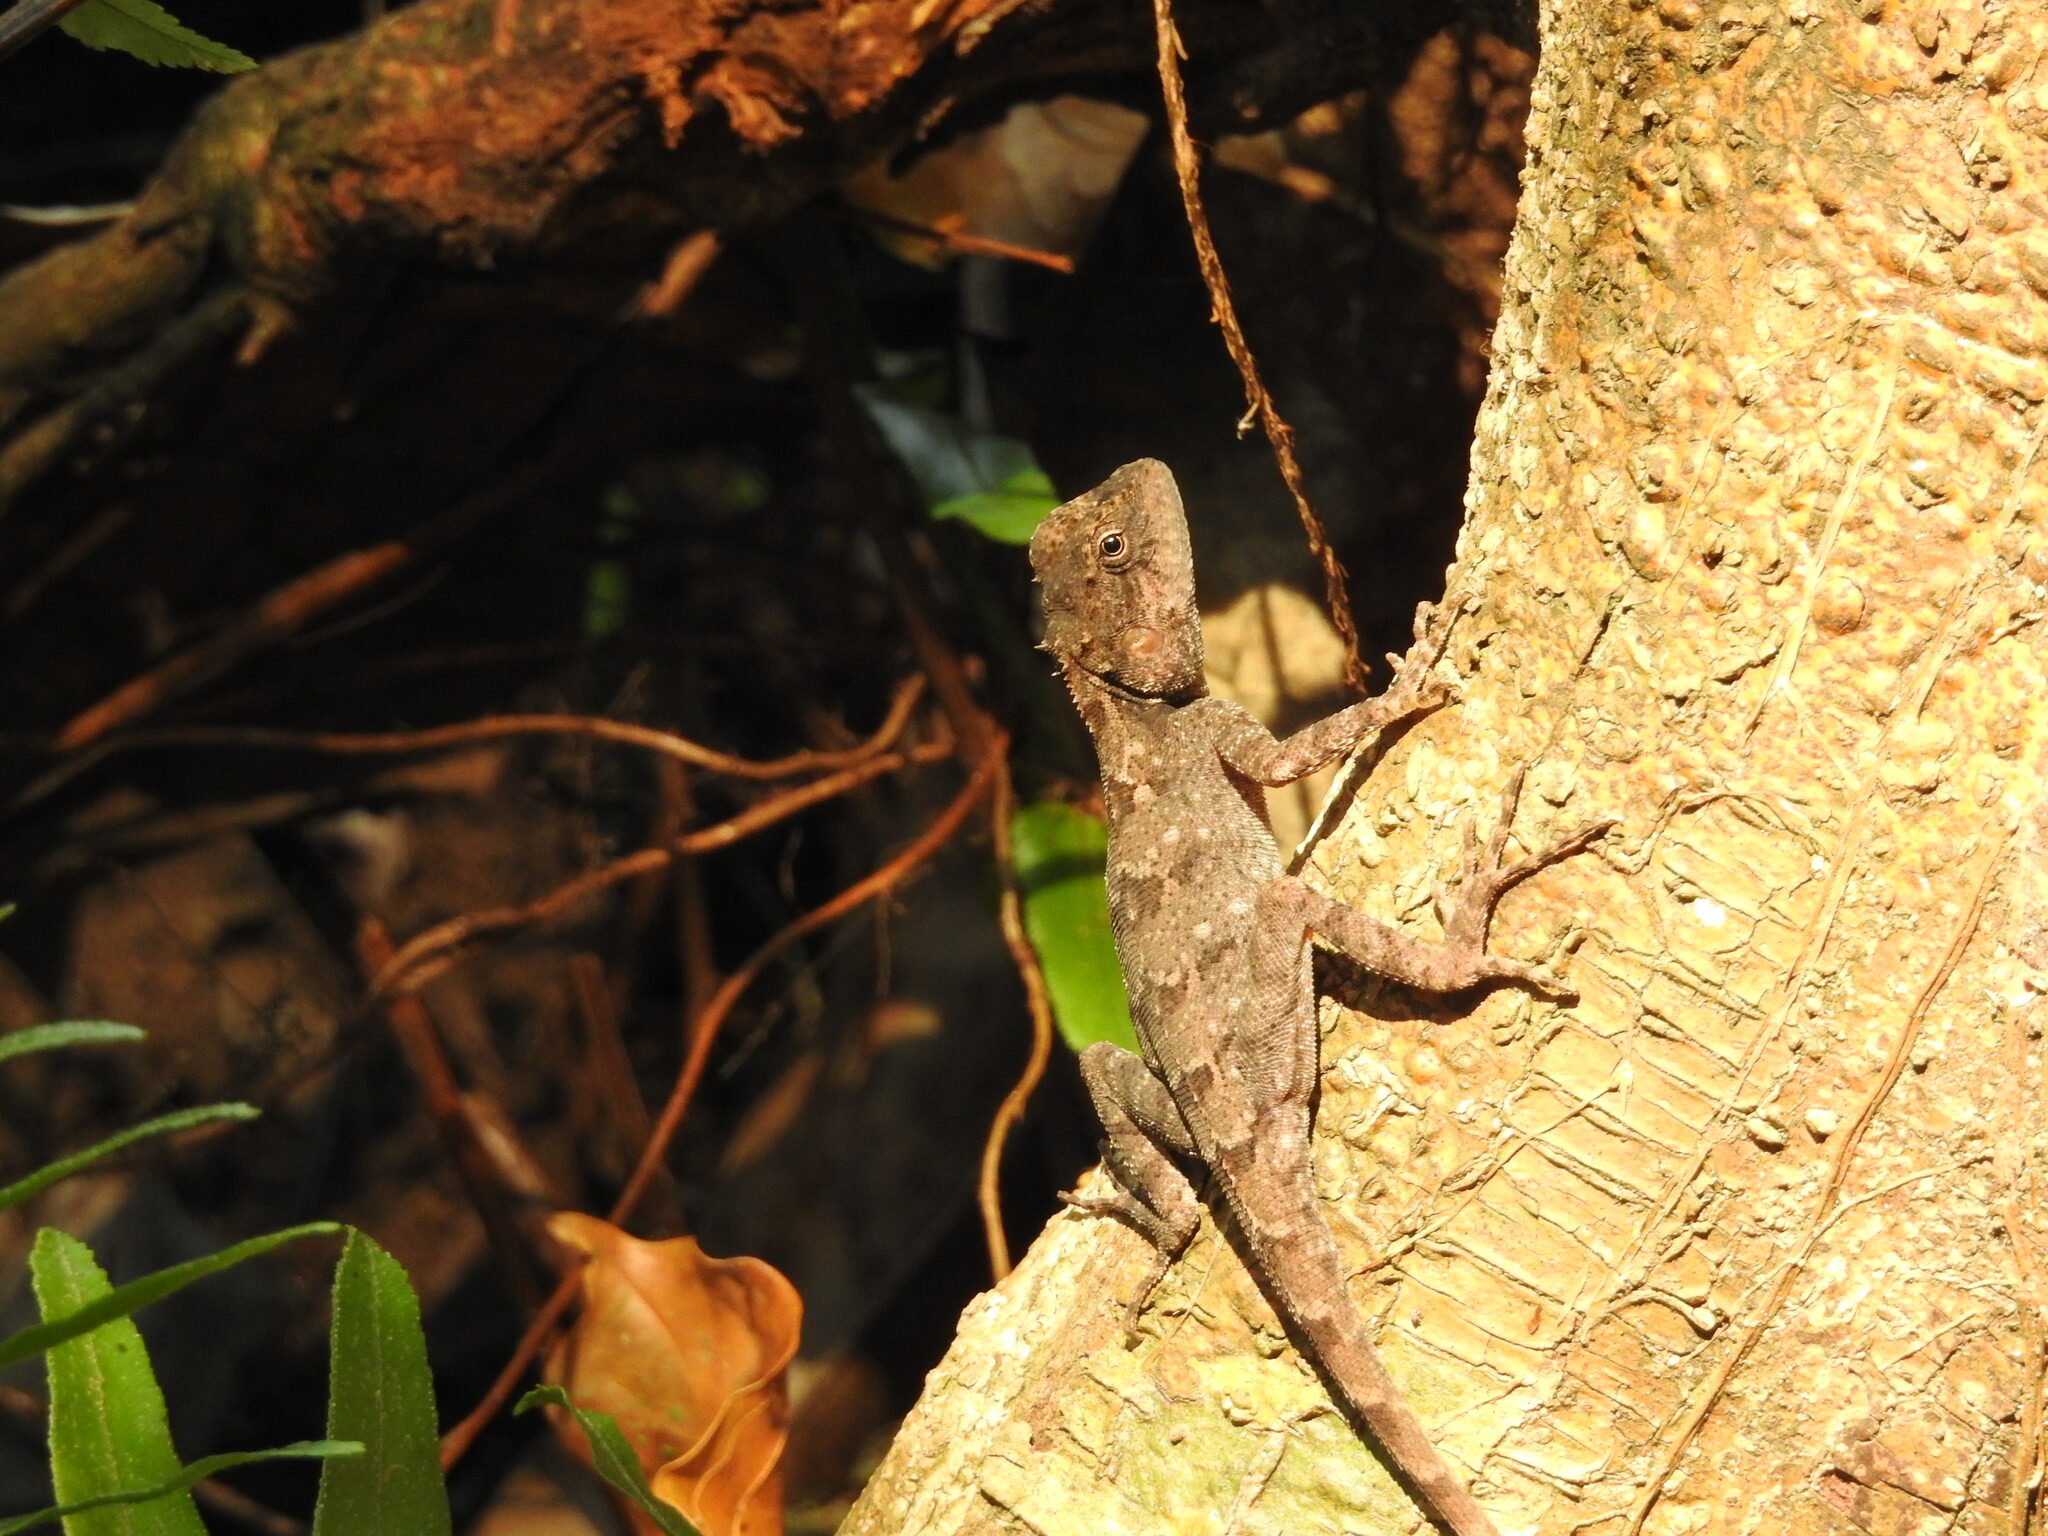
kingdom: Animalia
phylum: Chordata
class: Squamata
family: Agamidae
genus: Psammophilus
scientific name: Psammophilus blanfordanus
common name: Blanford's rock agama
